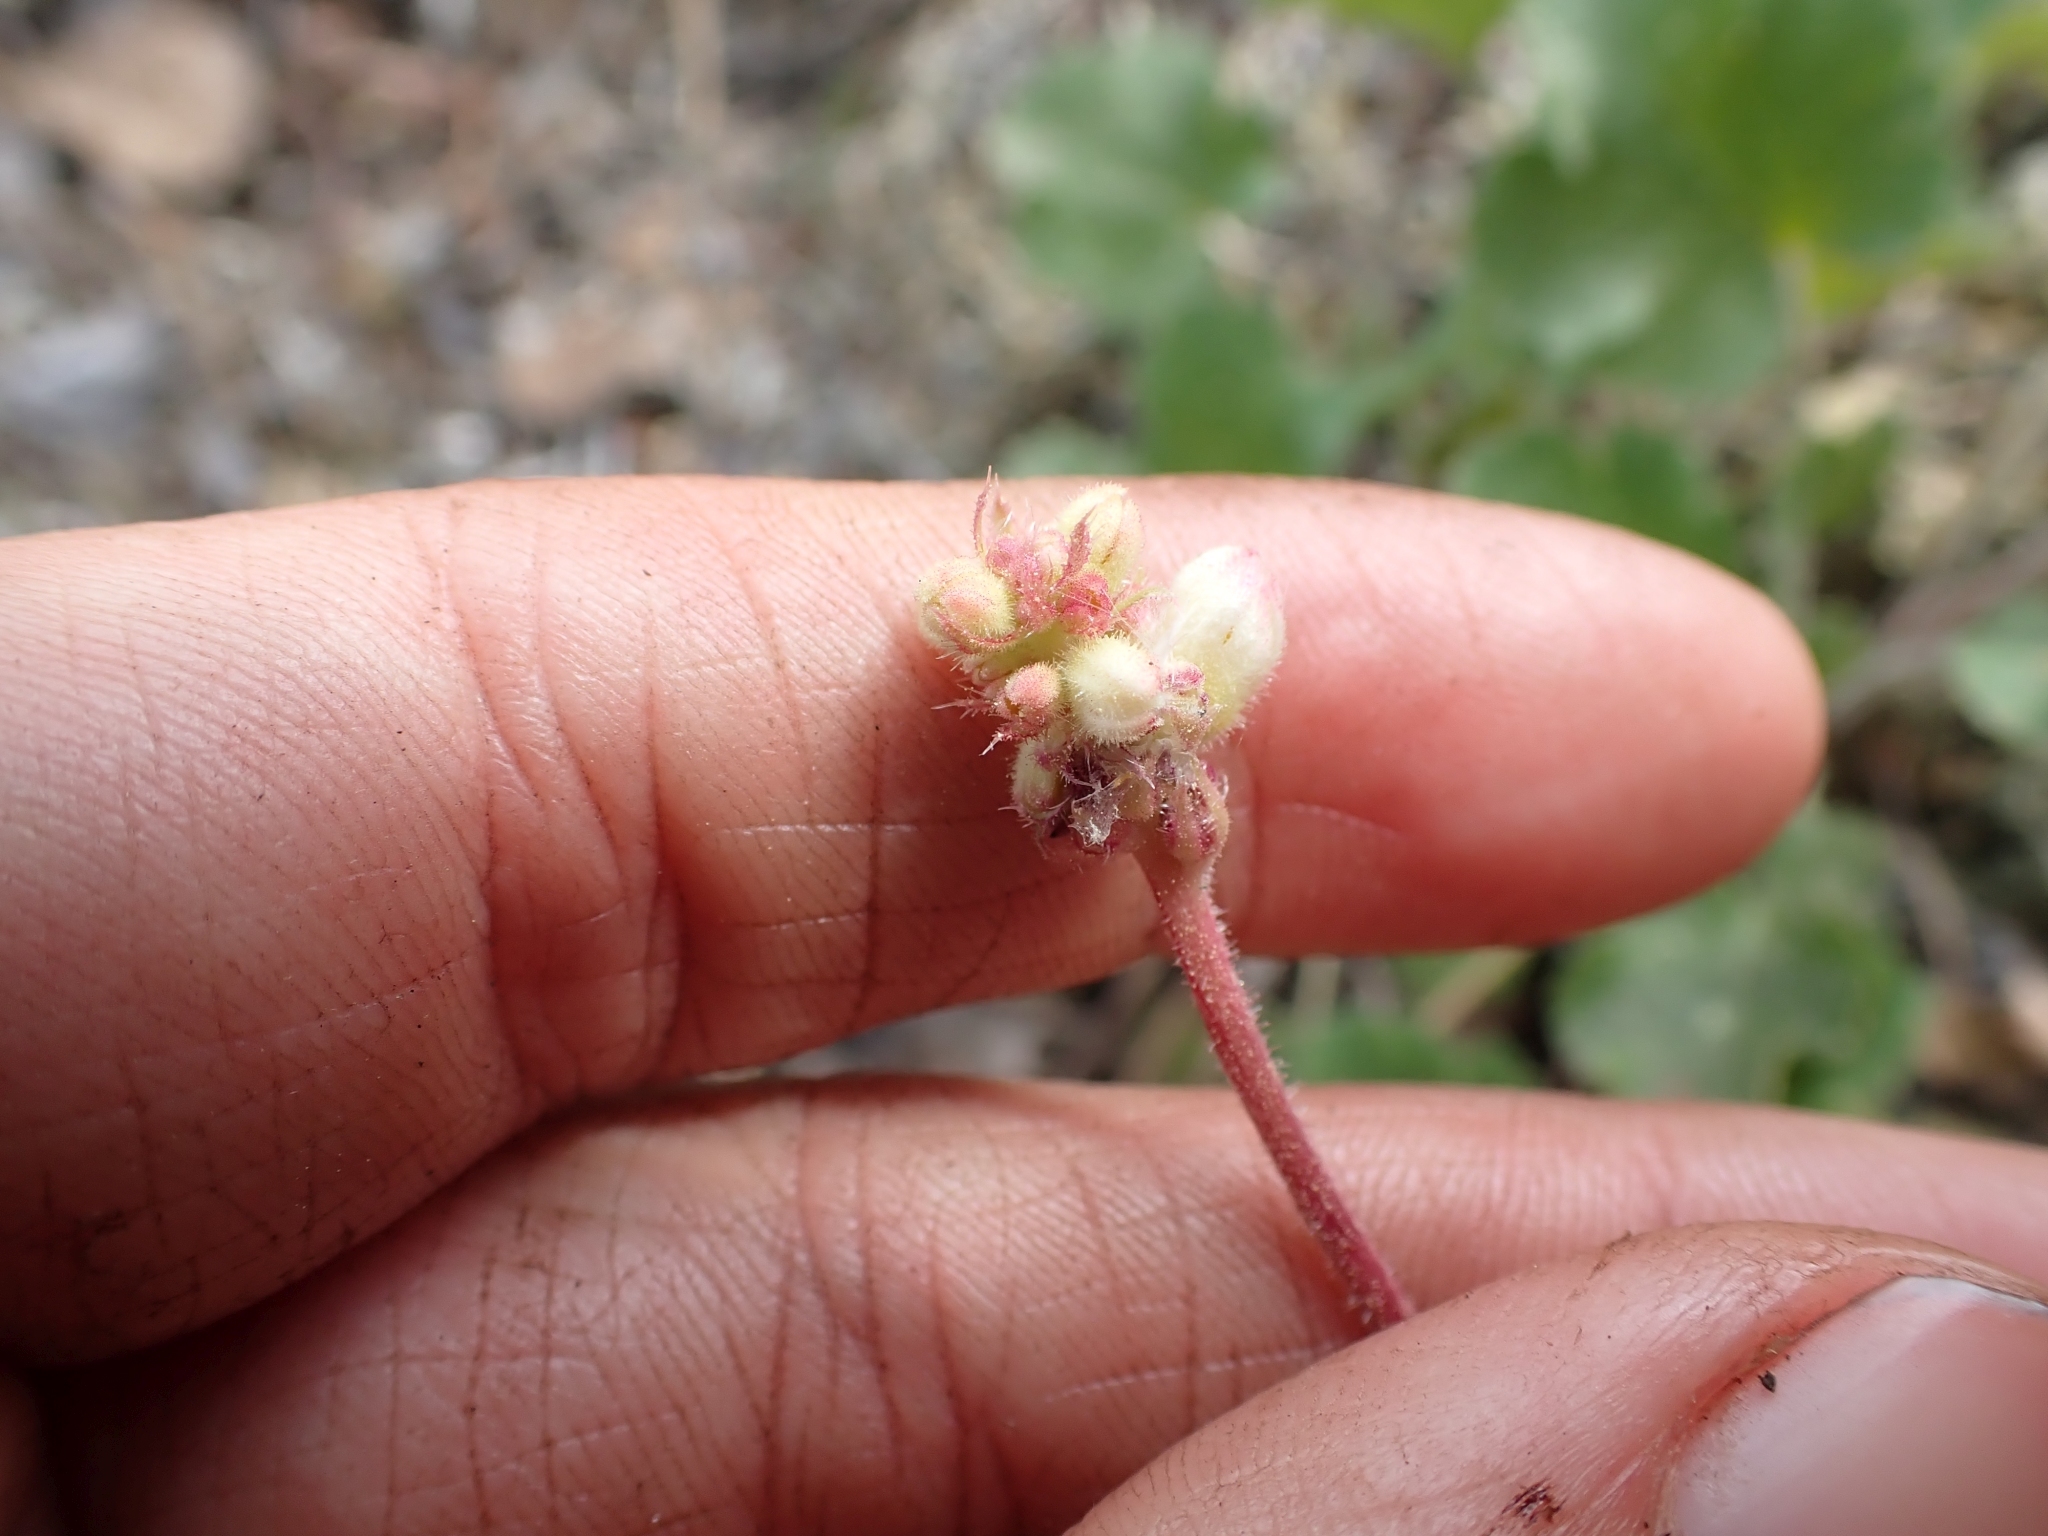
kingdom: Plantae
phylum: Tracheophyta
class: Magnoliopsida
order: Saxifragales
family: Saxifragaceae
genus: Heuchera
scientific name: Heuchera cylindrica
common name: Mat alumroot
